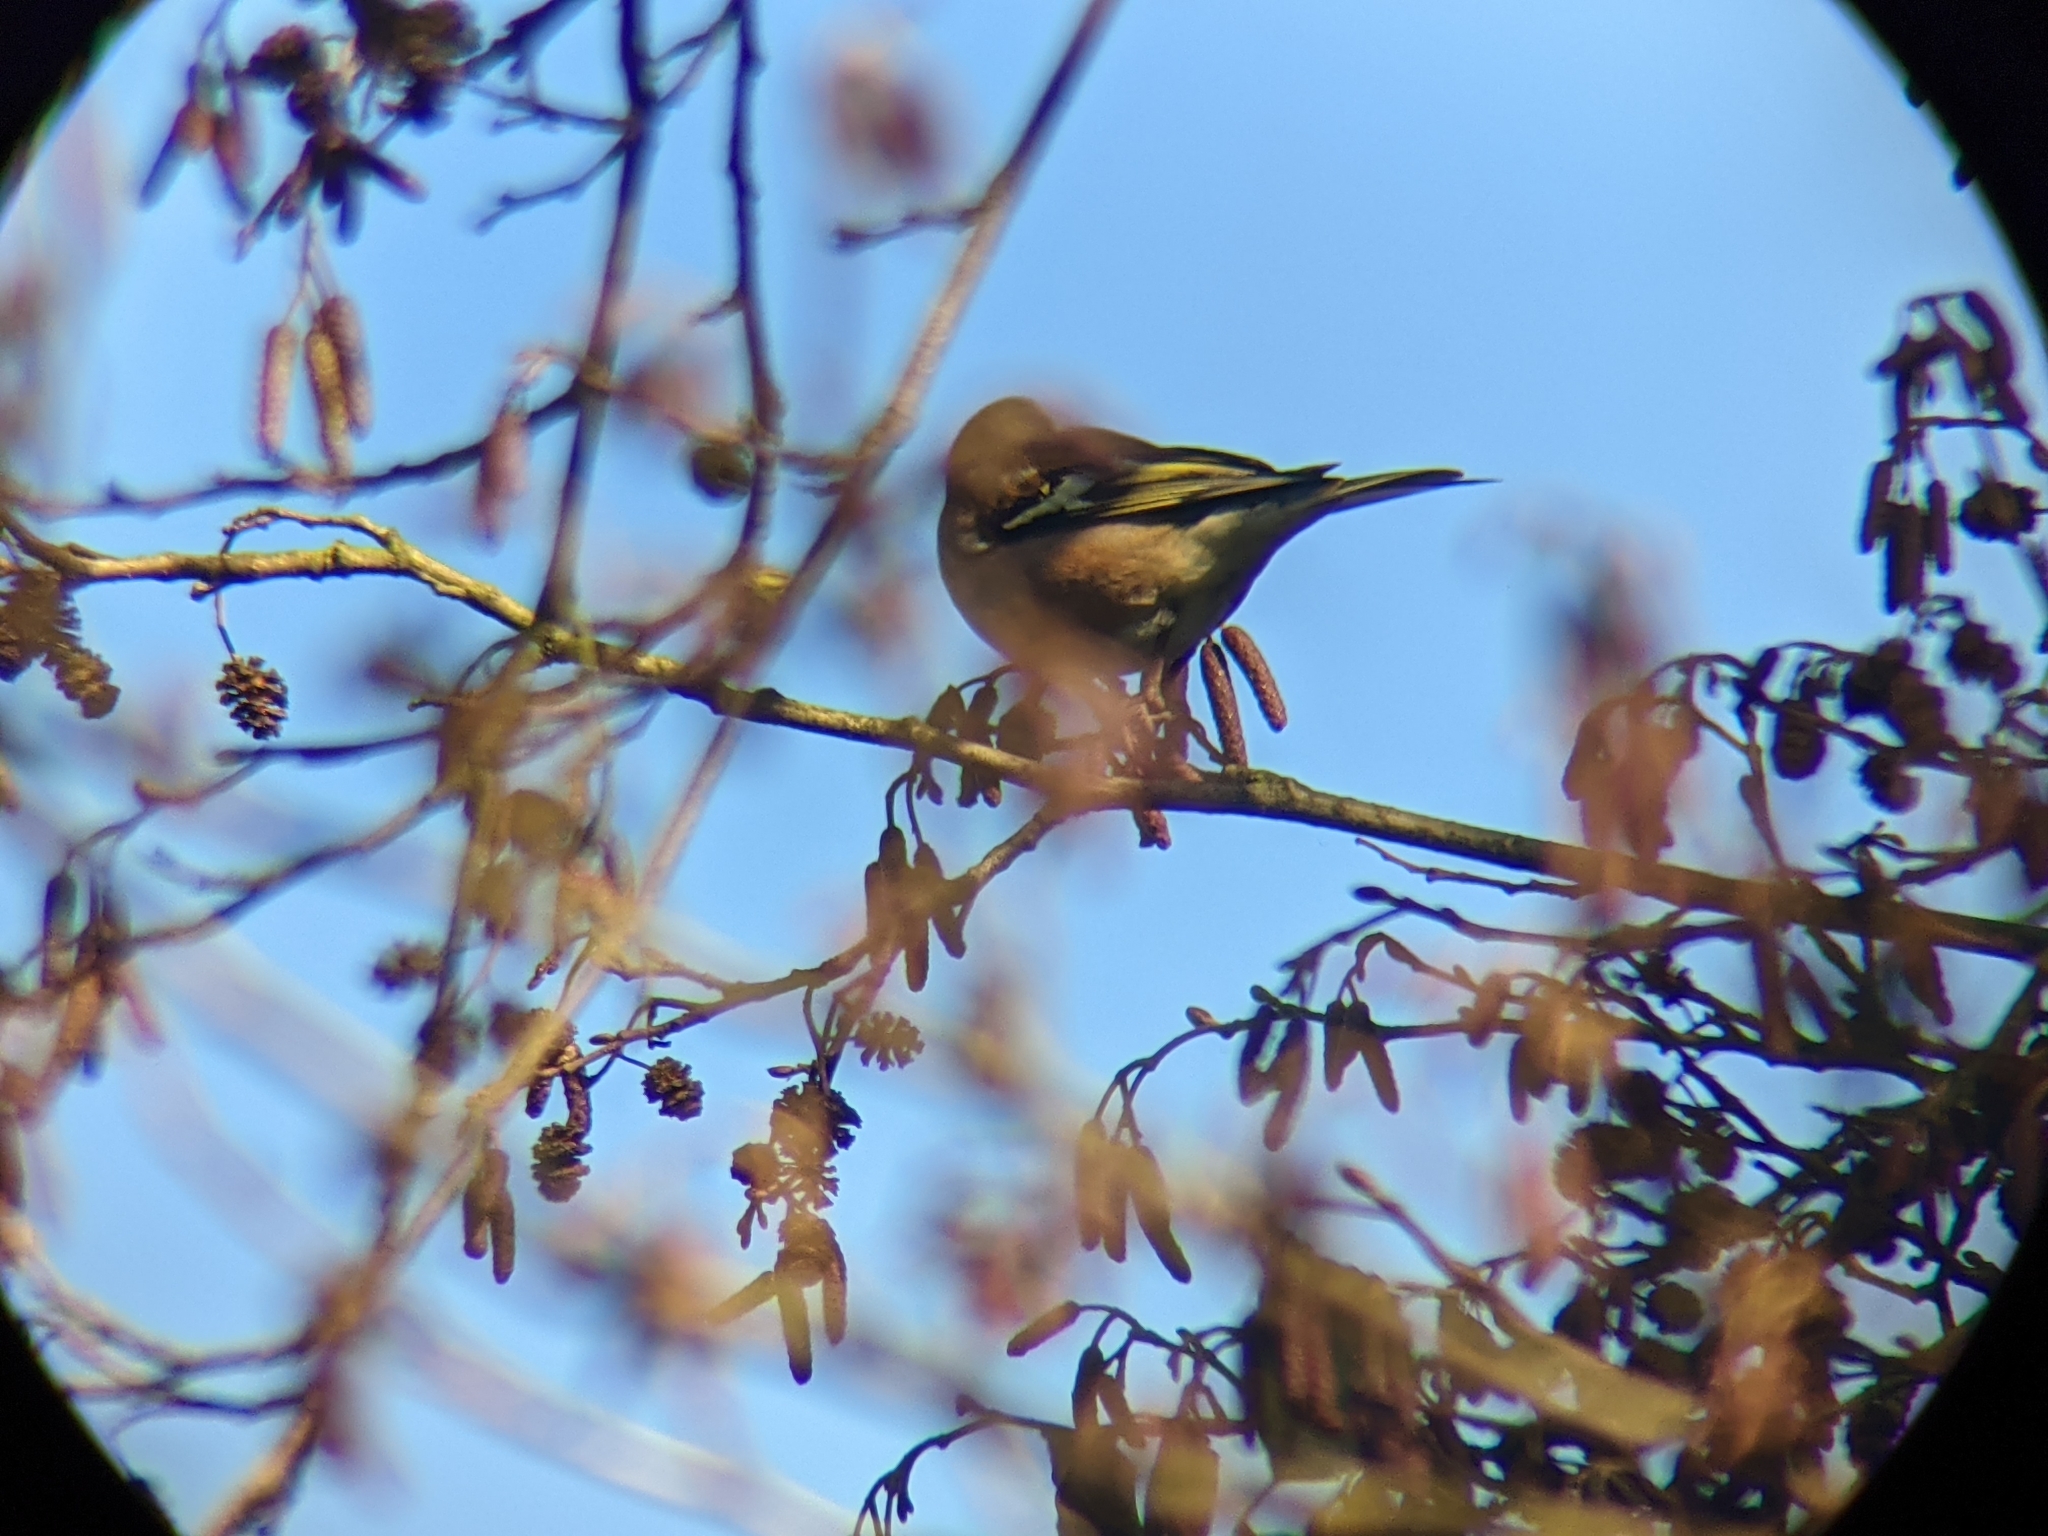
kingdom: Animalia
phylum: Chordata
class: Aves
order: Passeriformes
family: Fringillidae
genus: Fringilla
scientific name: Fringilla coelebs
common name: Common chaffinch
